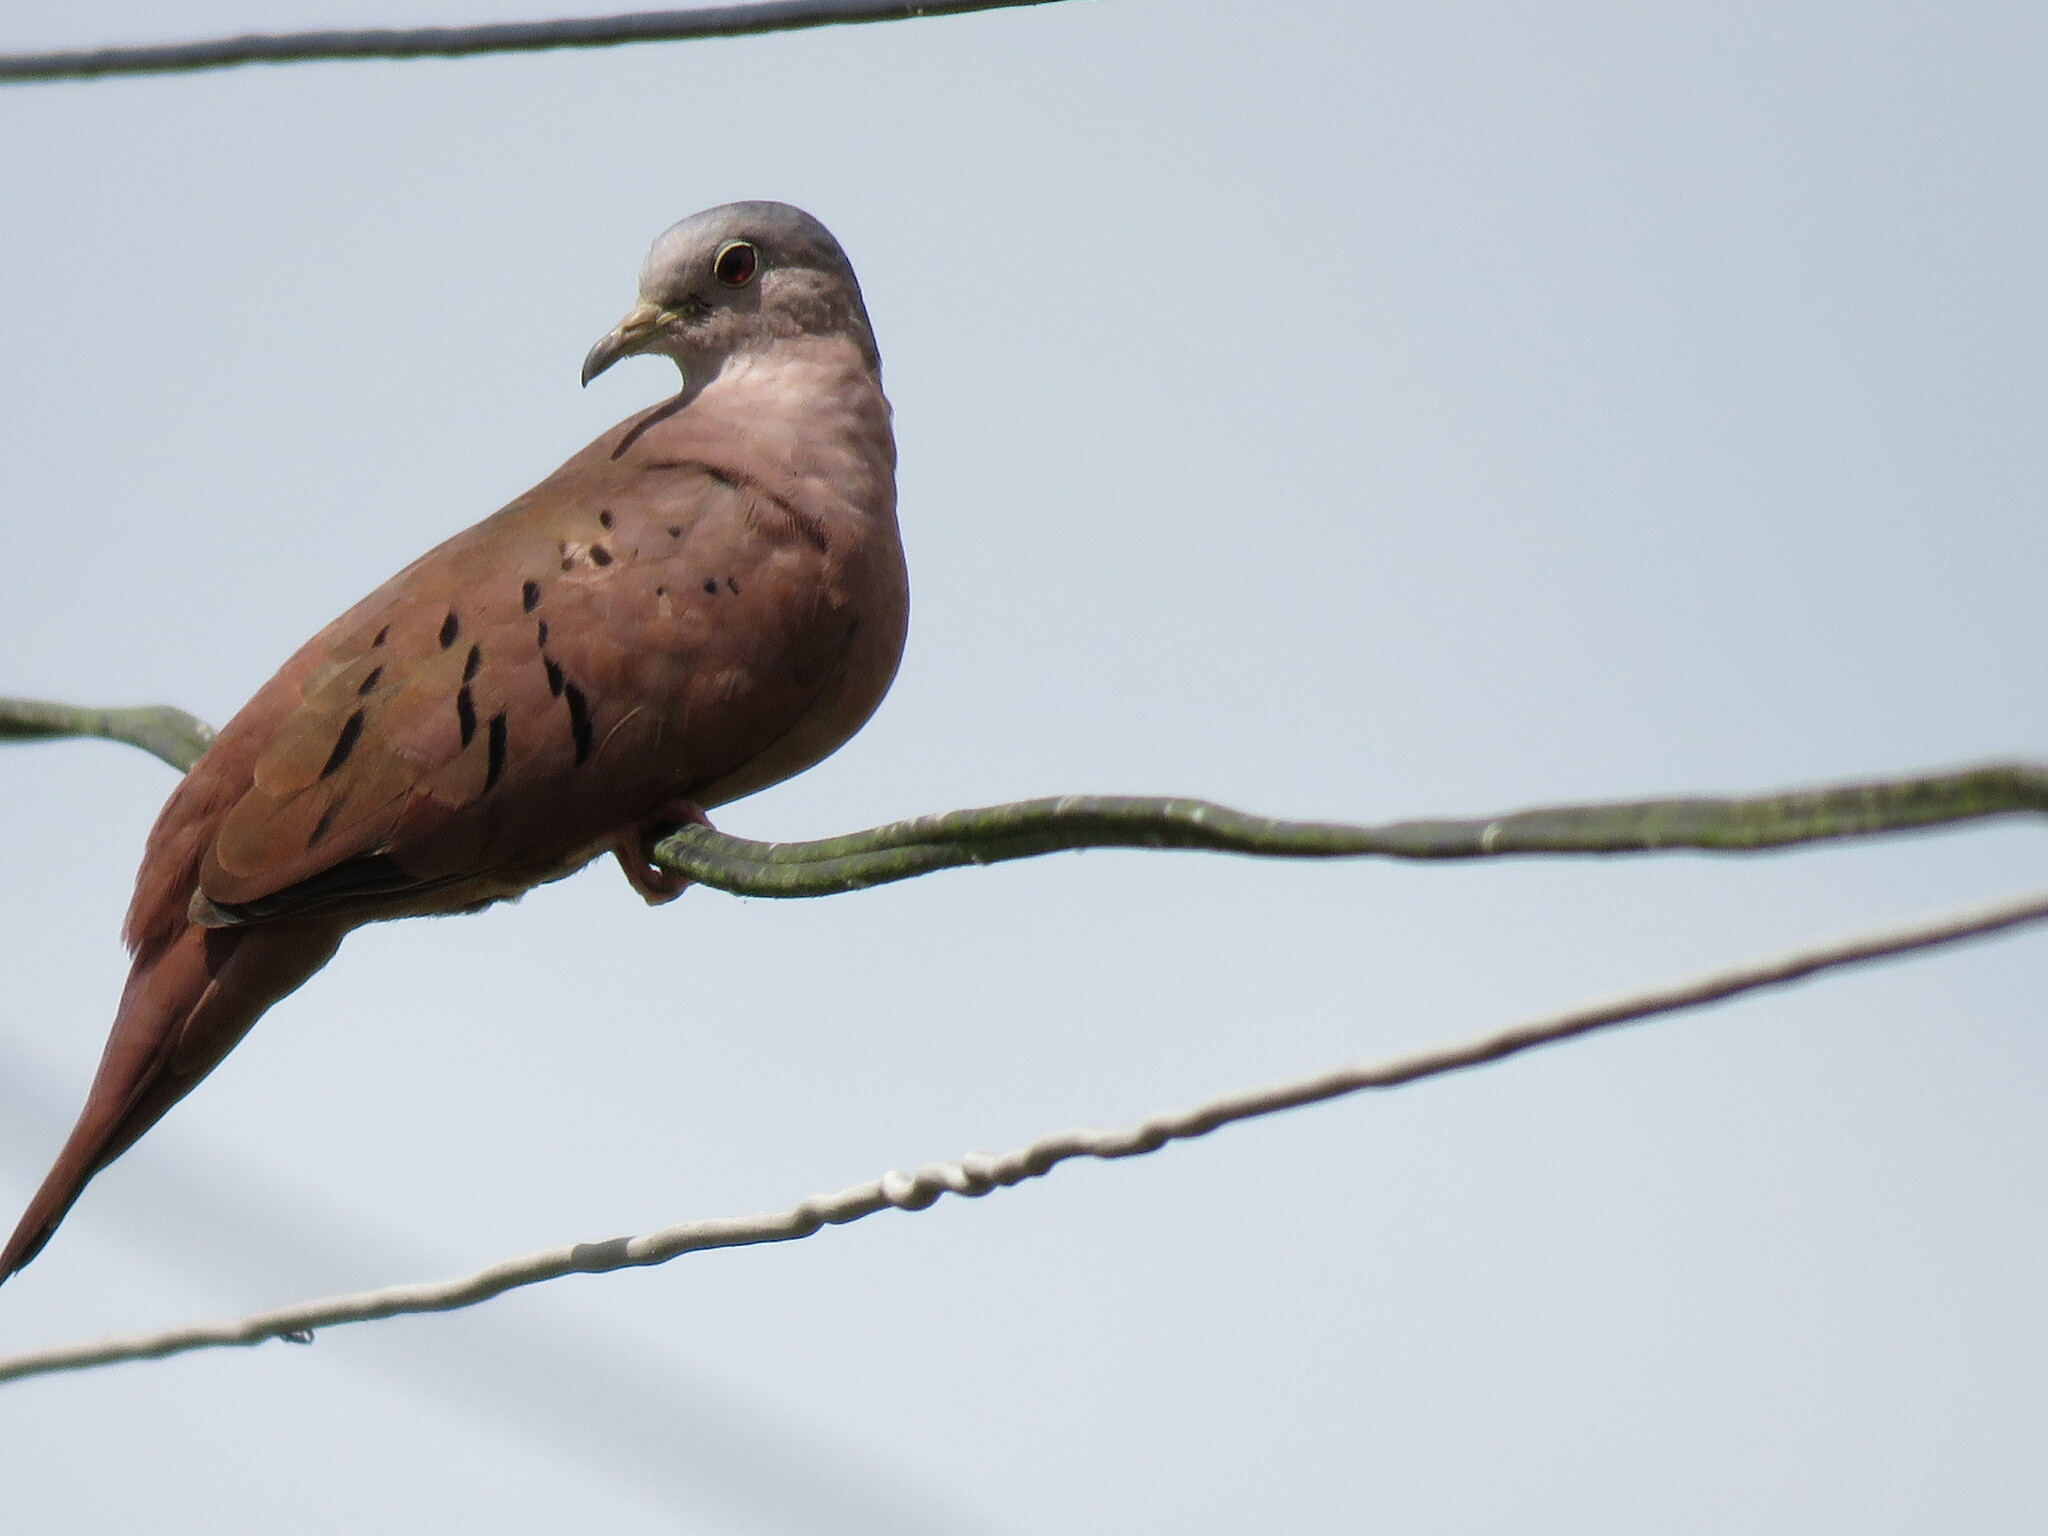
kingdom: Animalia
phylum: Chordata
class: Aves
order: Columbiformes
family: Columbidae
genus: Columbina
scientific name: Columbina talpacoti
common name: Ruddy ground dove
